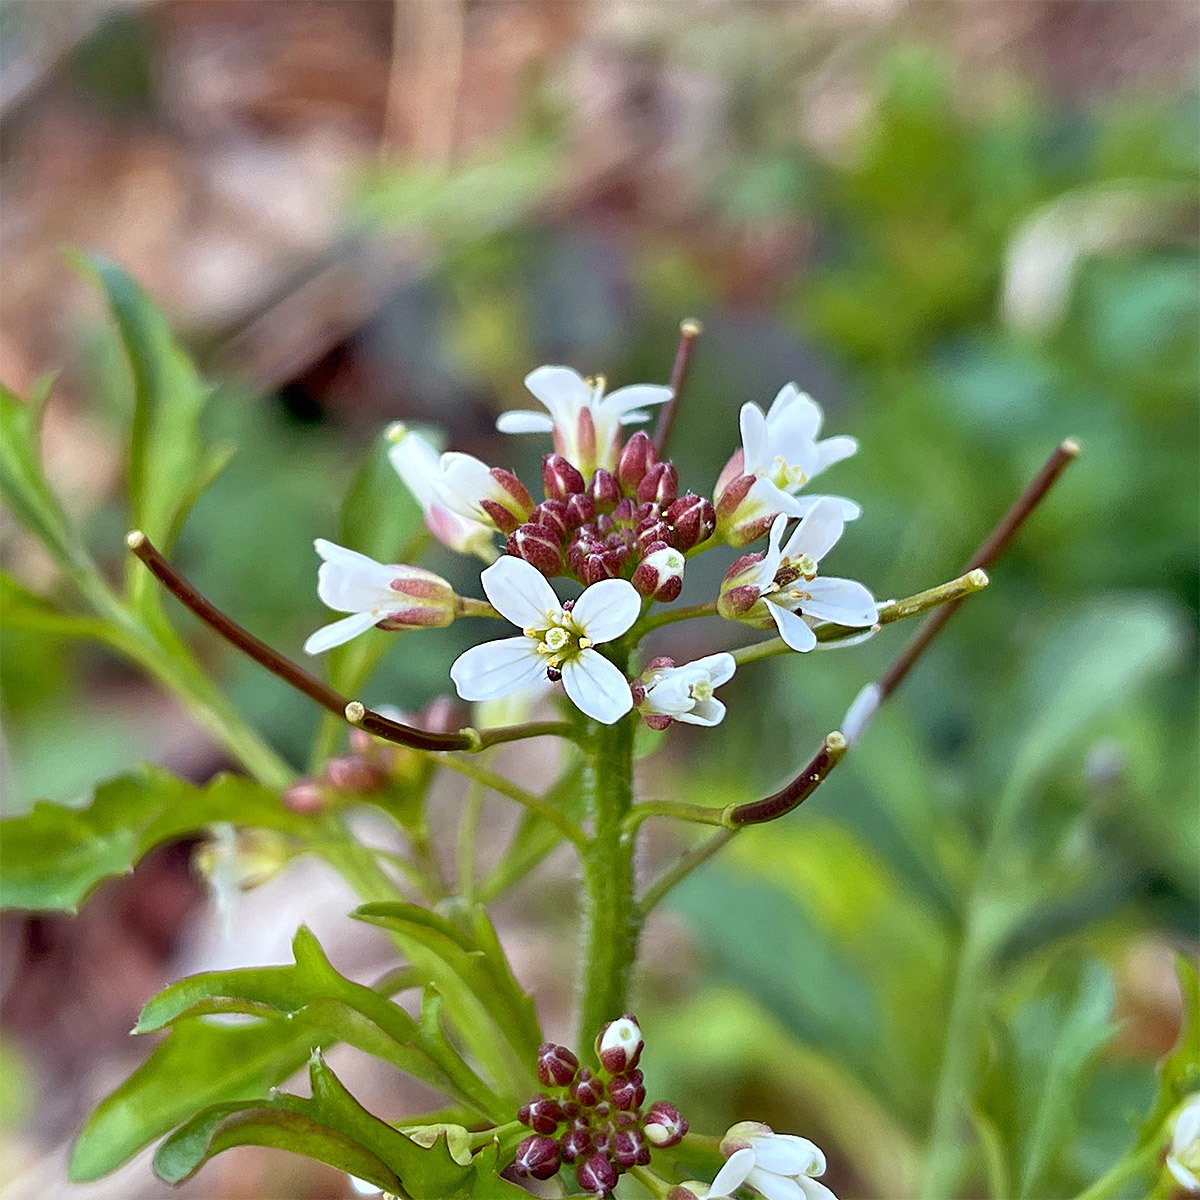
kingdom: Plantae
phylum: Tracheophyta
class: Magnoliopsida
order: Brassicales
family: Brassicaceae
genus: Cardamine
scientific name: Cardamine flexuosa
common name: Woodland bittercress
